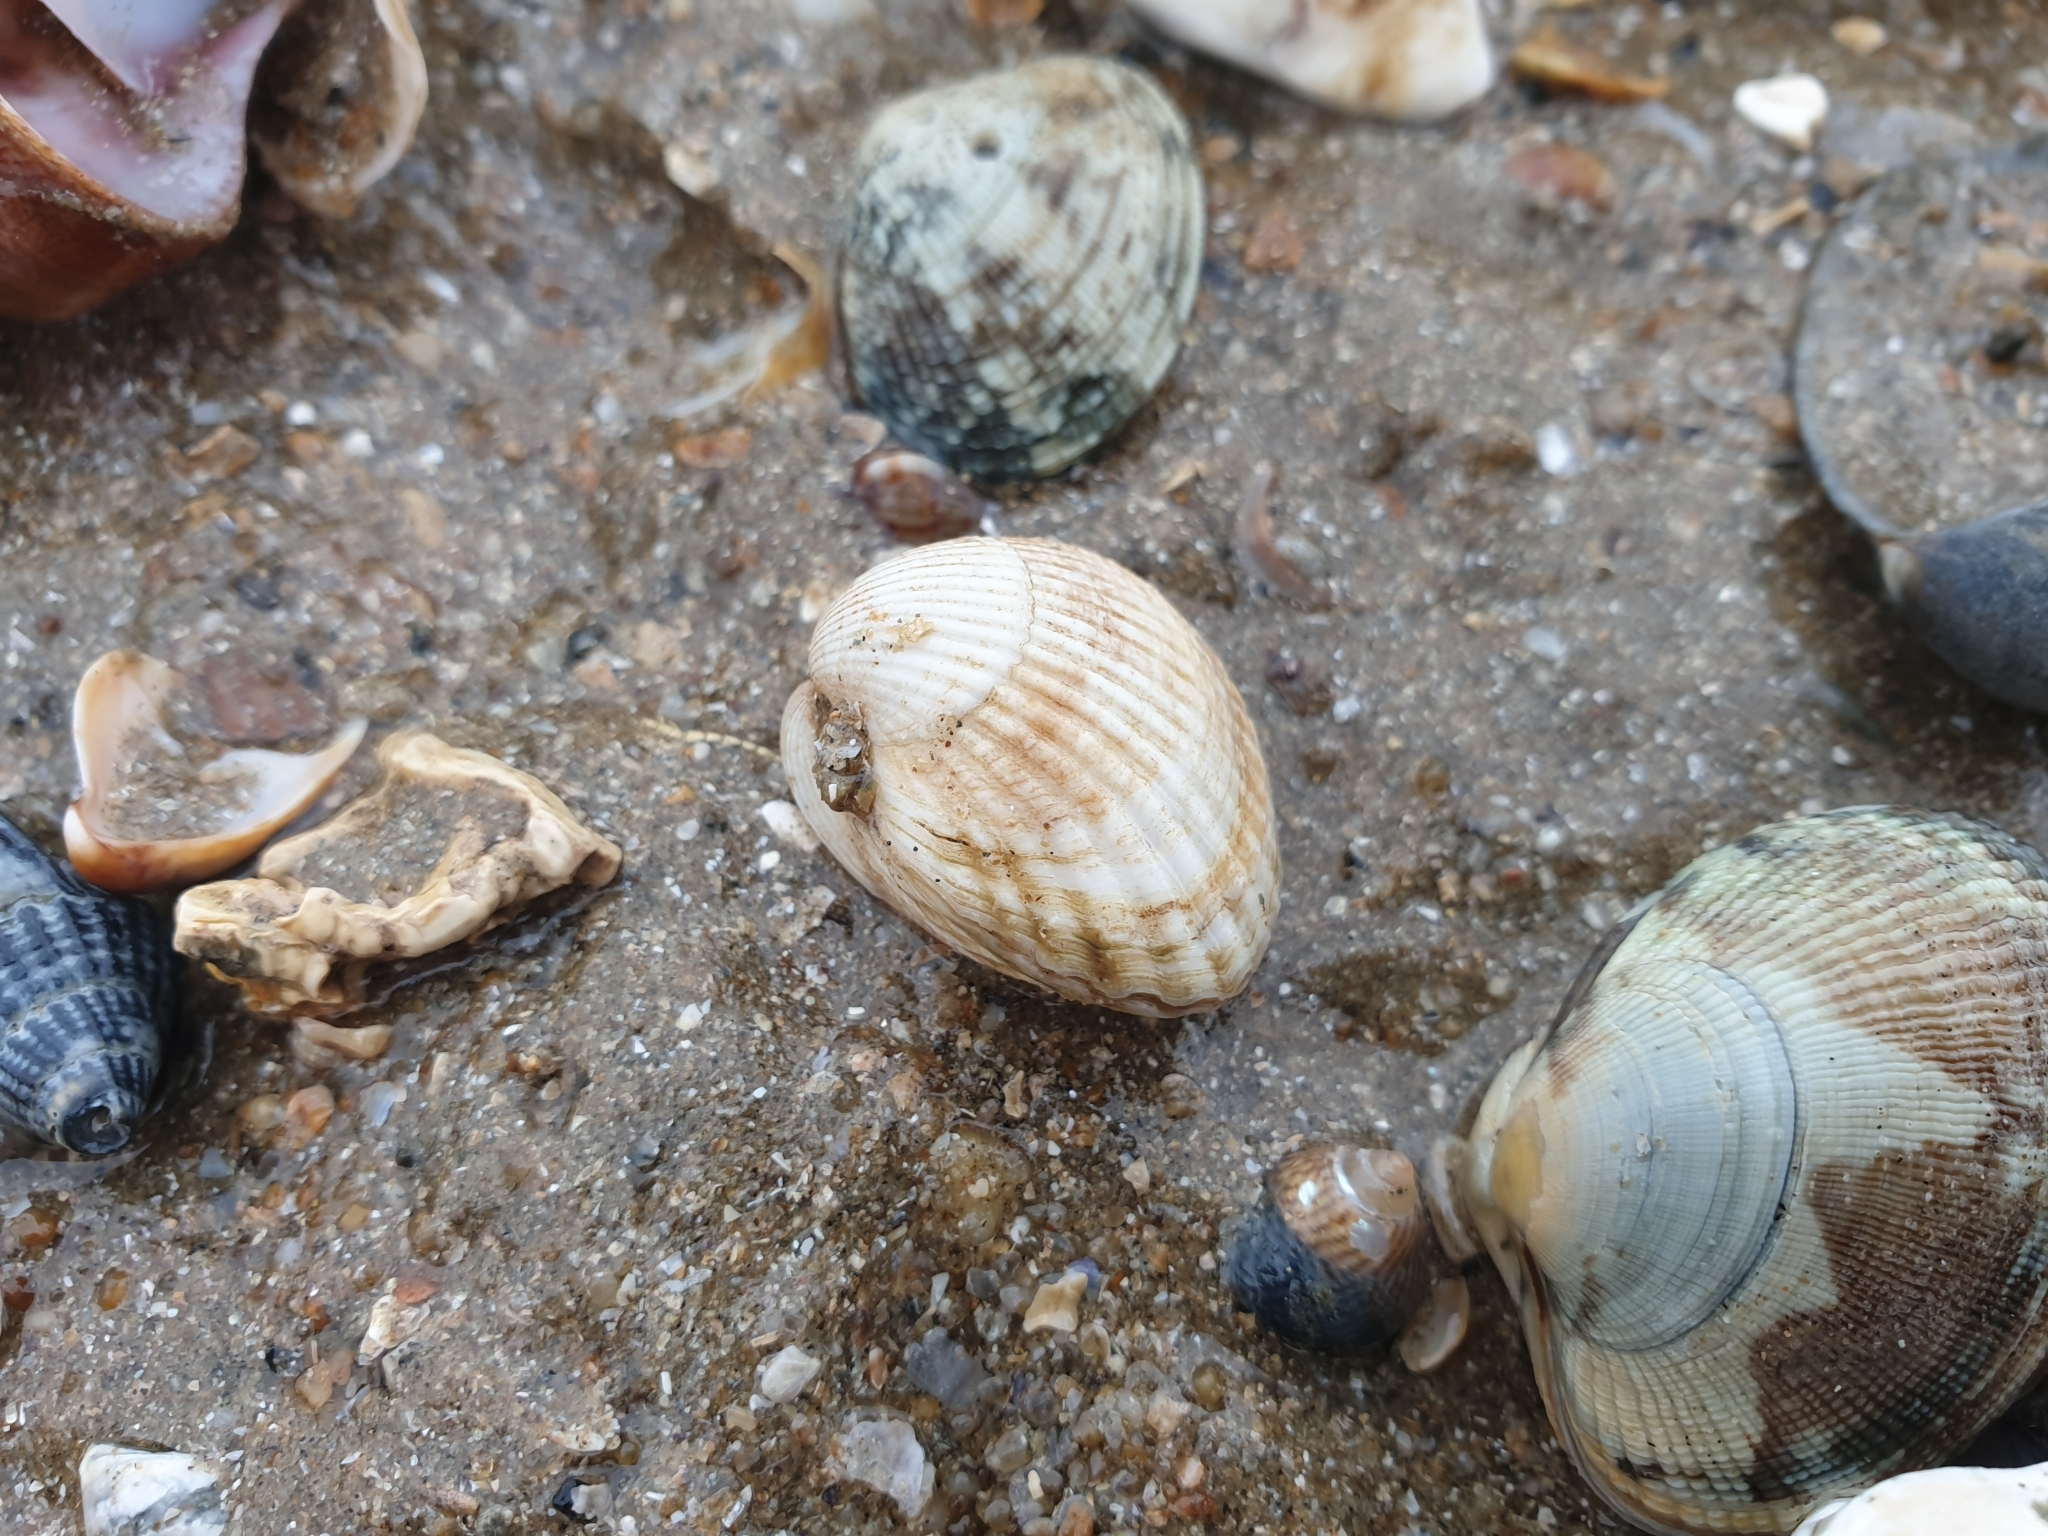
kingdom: Animalia
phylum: Mollusca
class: Bivalvia
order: Cardiida
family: Cardiidae
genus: Cerastoderma
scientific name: Cerastoderma edule
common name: Common cockle
